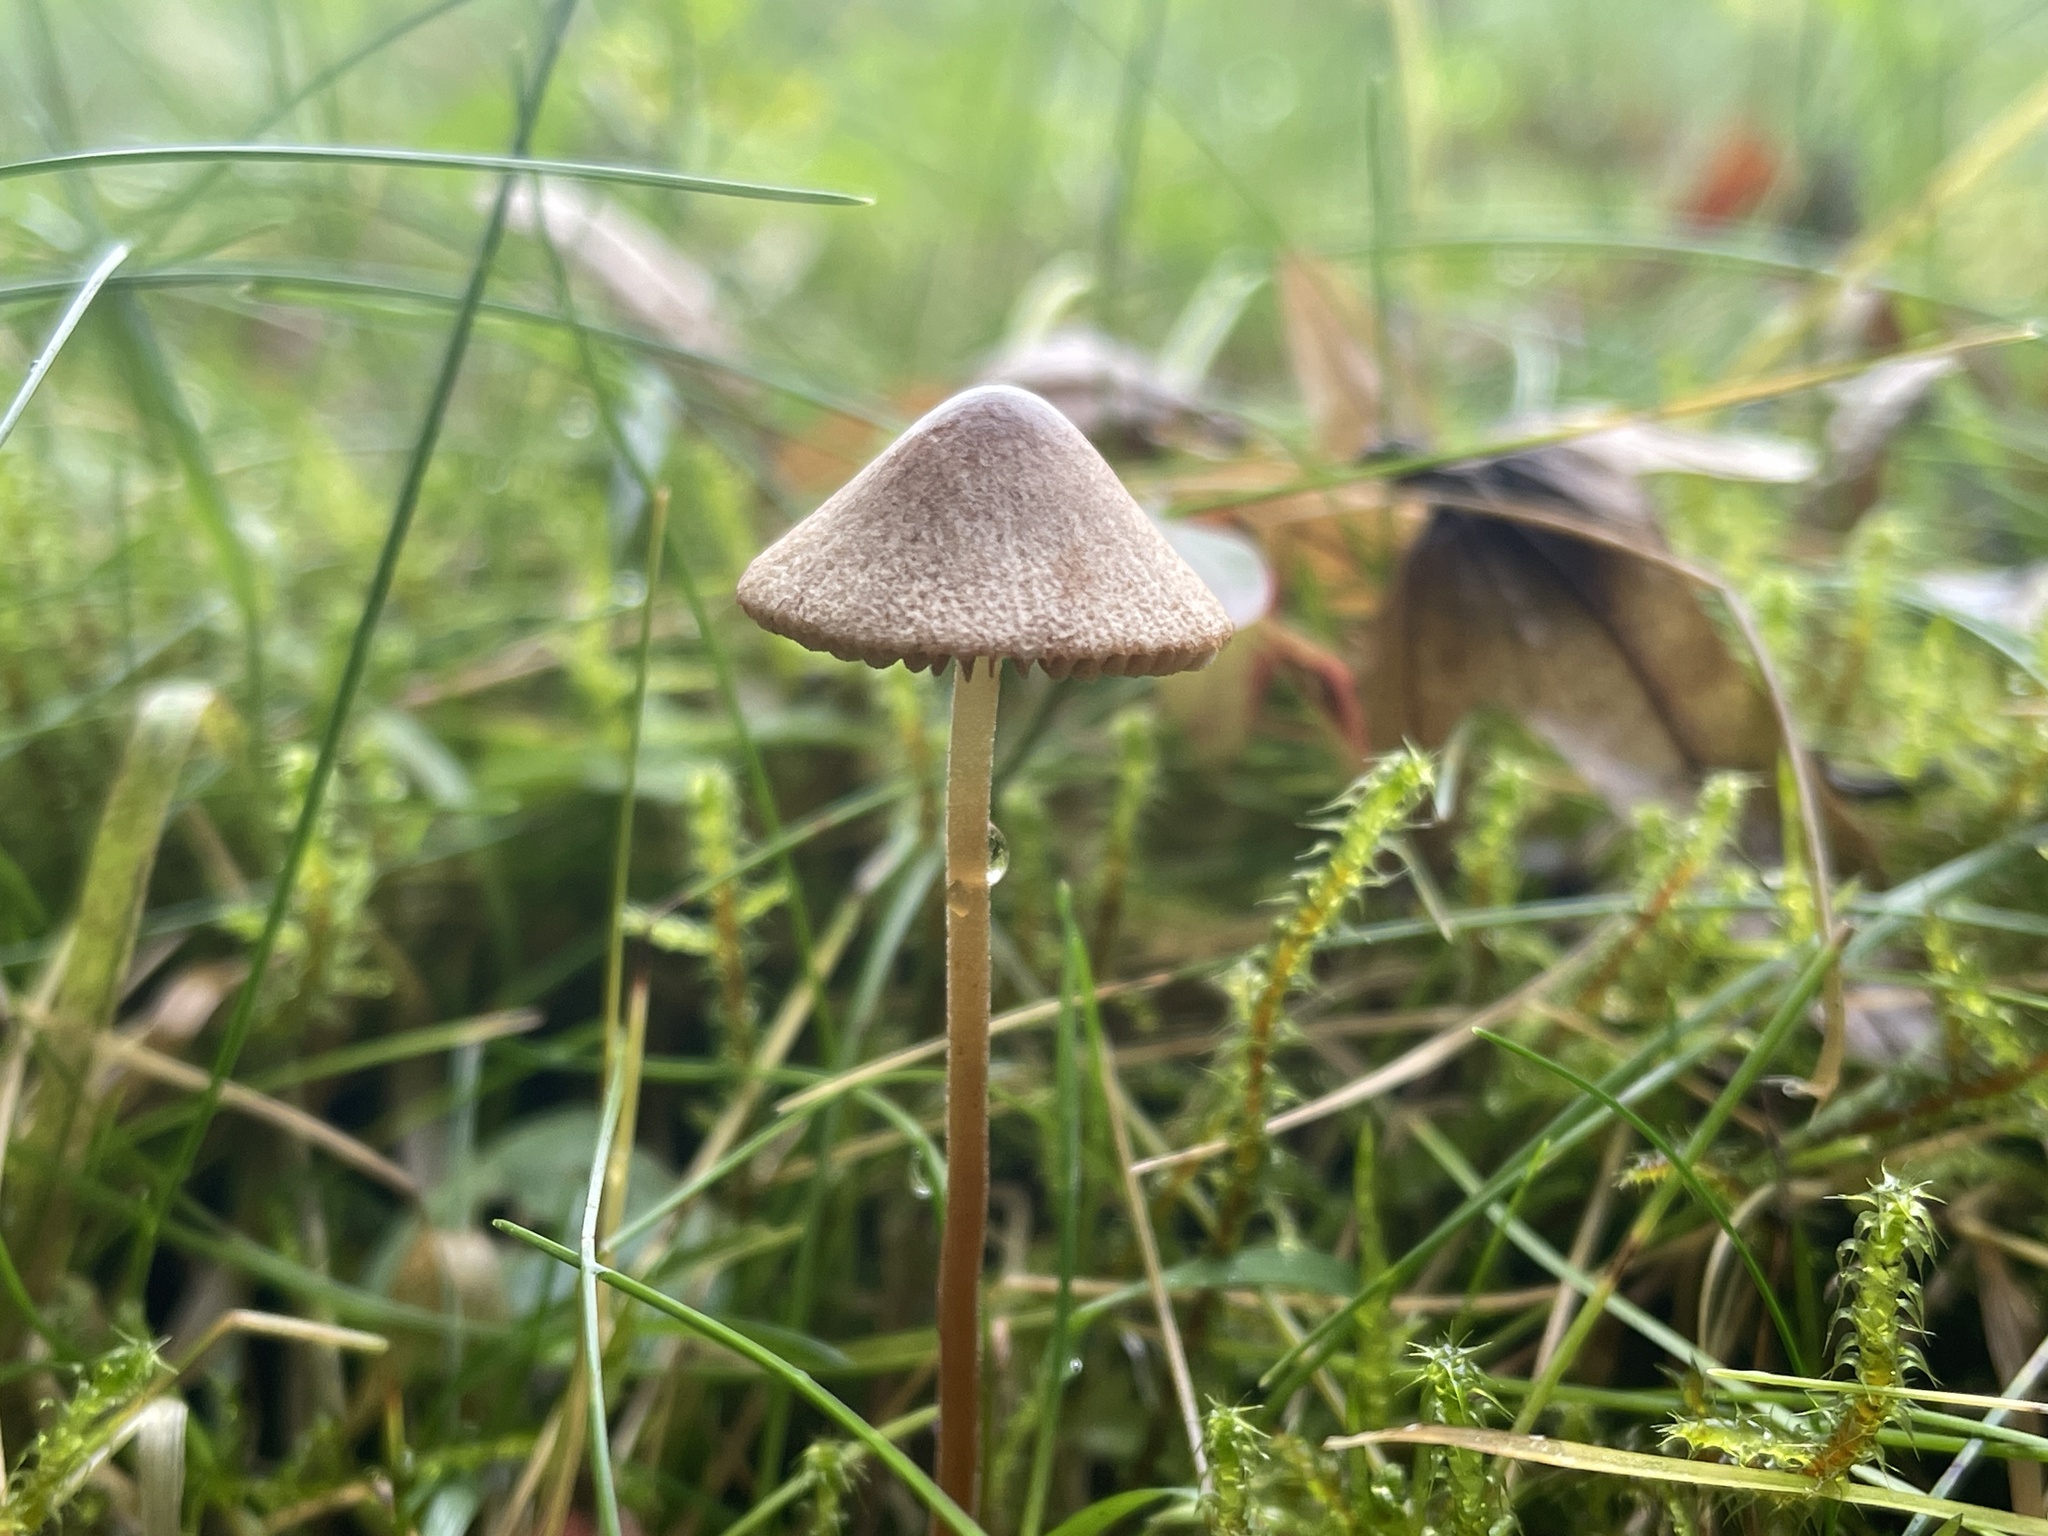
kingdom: Fungi
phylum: Basidiomycota
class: Agaricomycetes
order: Agaricales
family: Bolbitiaceae
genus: Conocybe
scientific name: Conocybe
